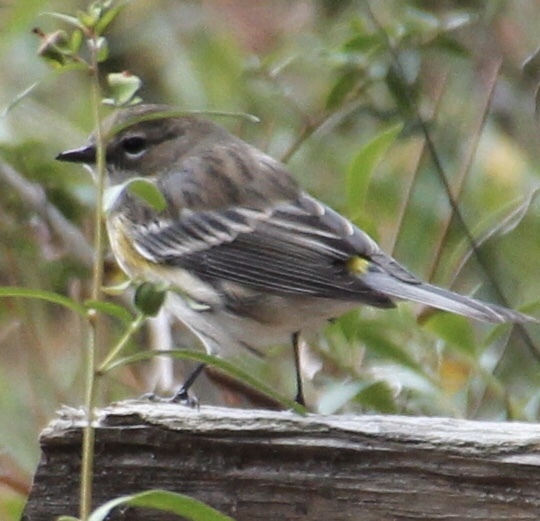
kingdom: Animalia
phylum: Chordata
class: Aves
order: Passeriformes
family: Parulidae
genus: Setophaga
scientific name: Setophaga coronata
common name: Myrtle warbler
